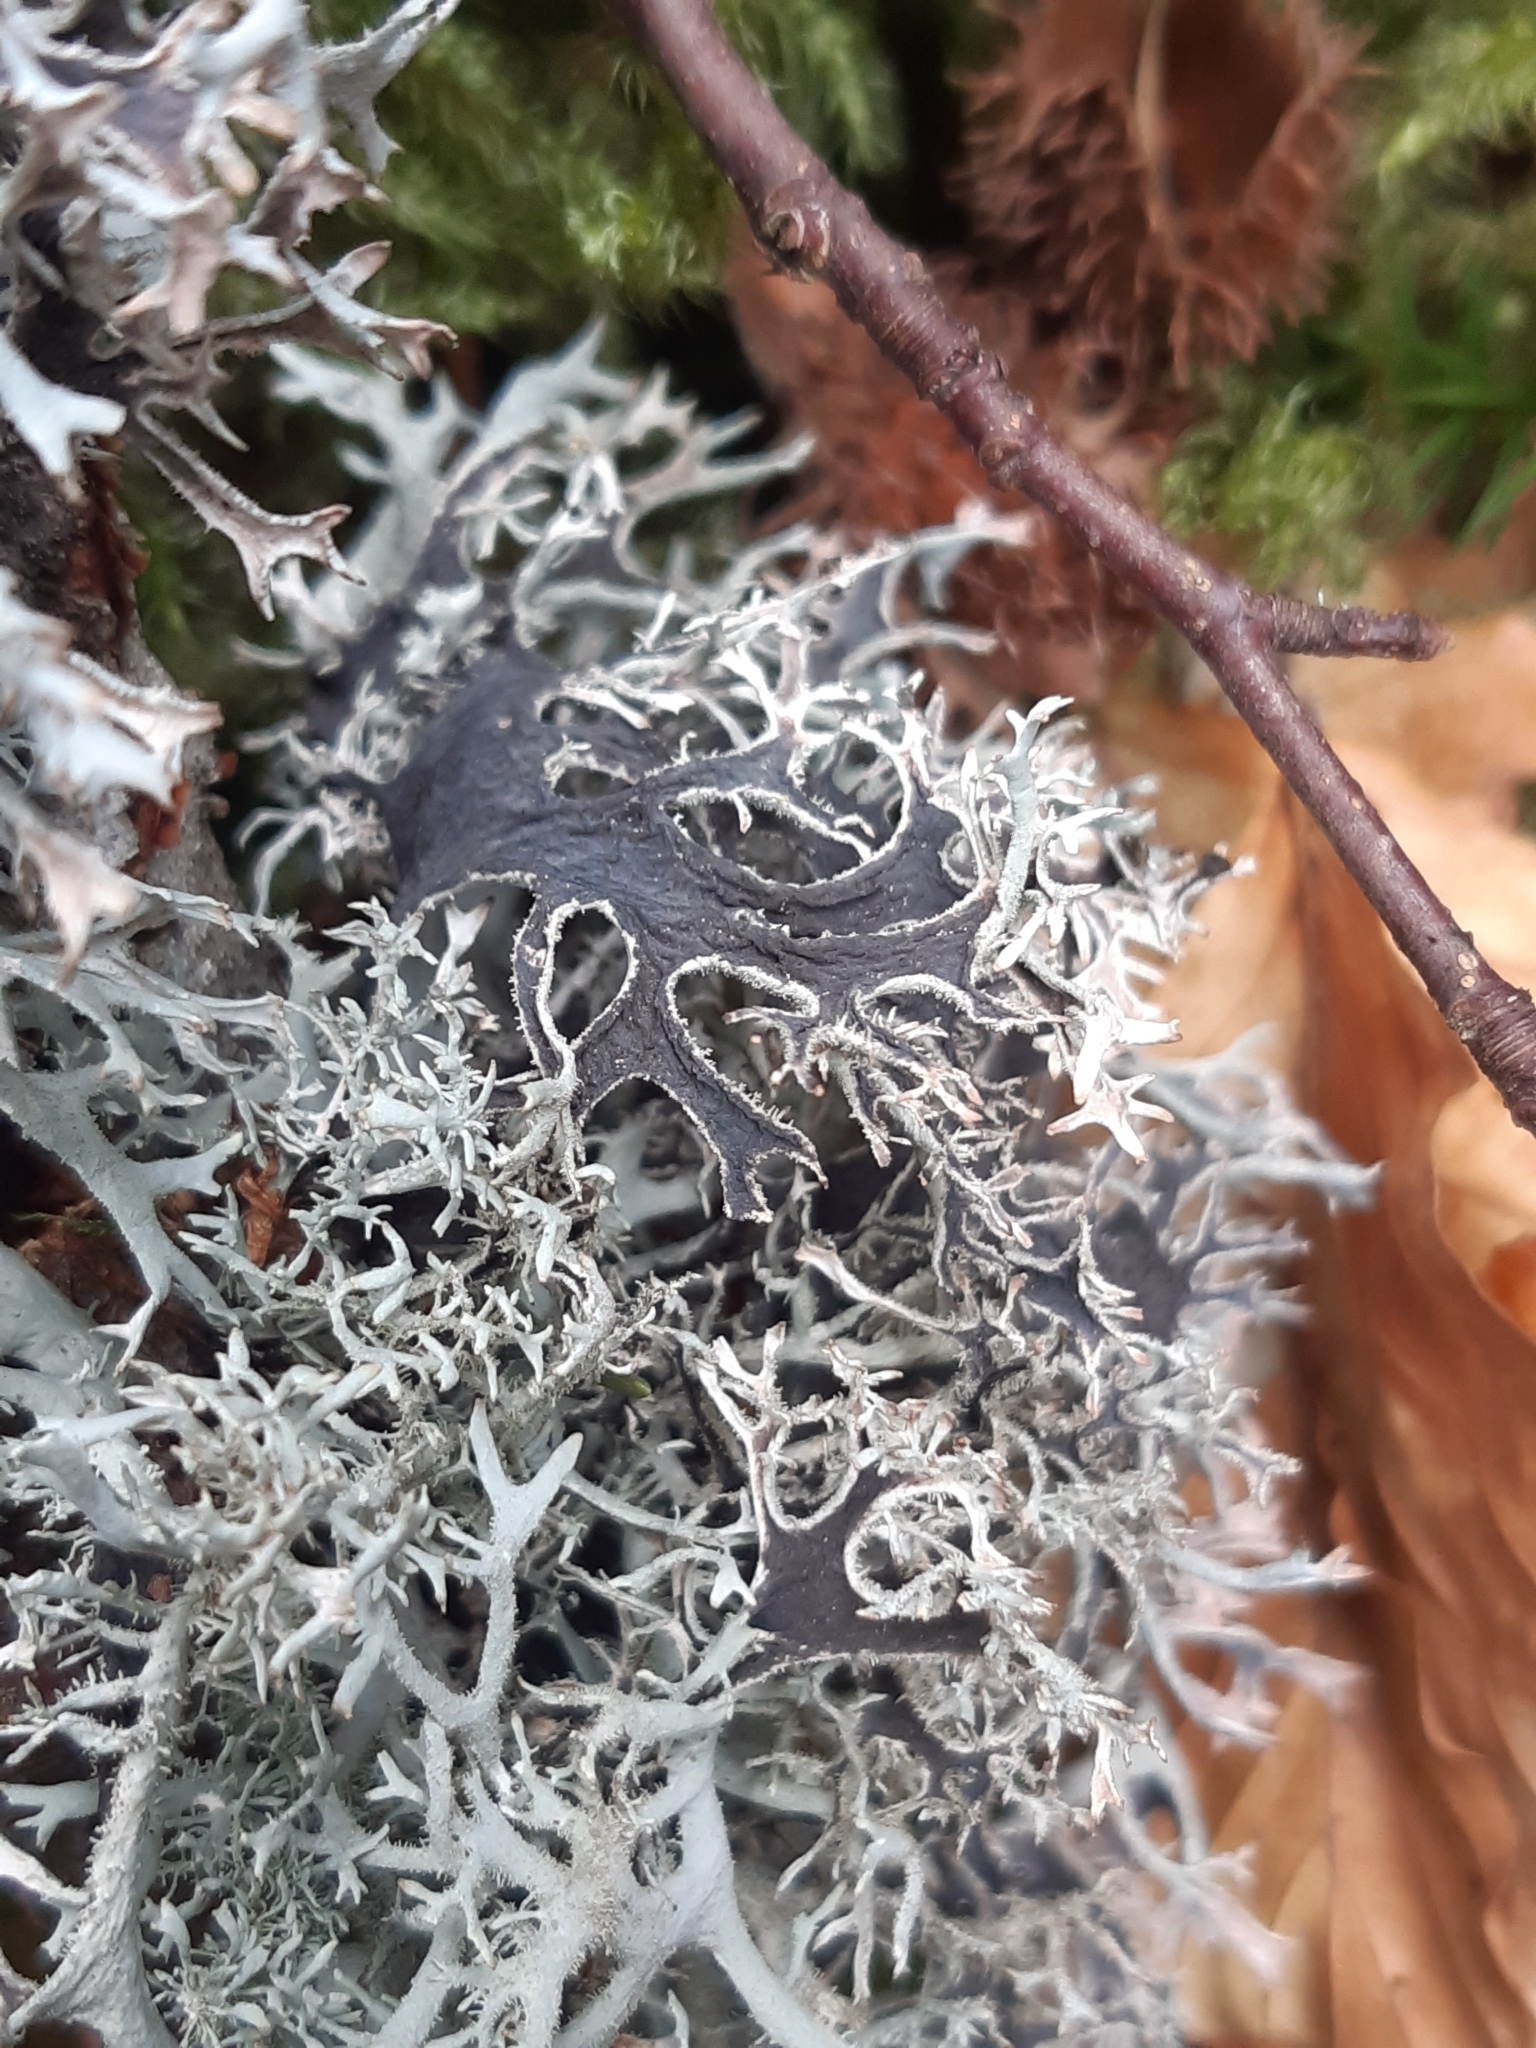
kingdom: Fungi
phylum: Ascomycota
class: Lecanoromycetes
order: Lecanorales
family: Parmeliaceae
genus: Pseudevernia
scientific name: Pseudevernia furfuracea
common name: Tree moss
